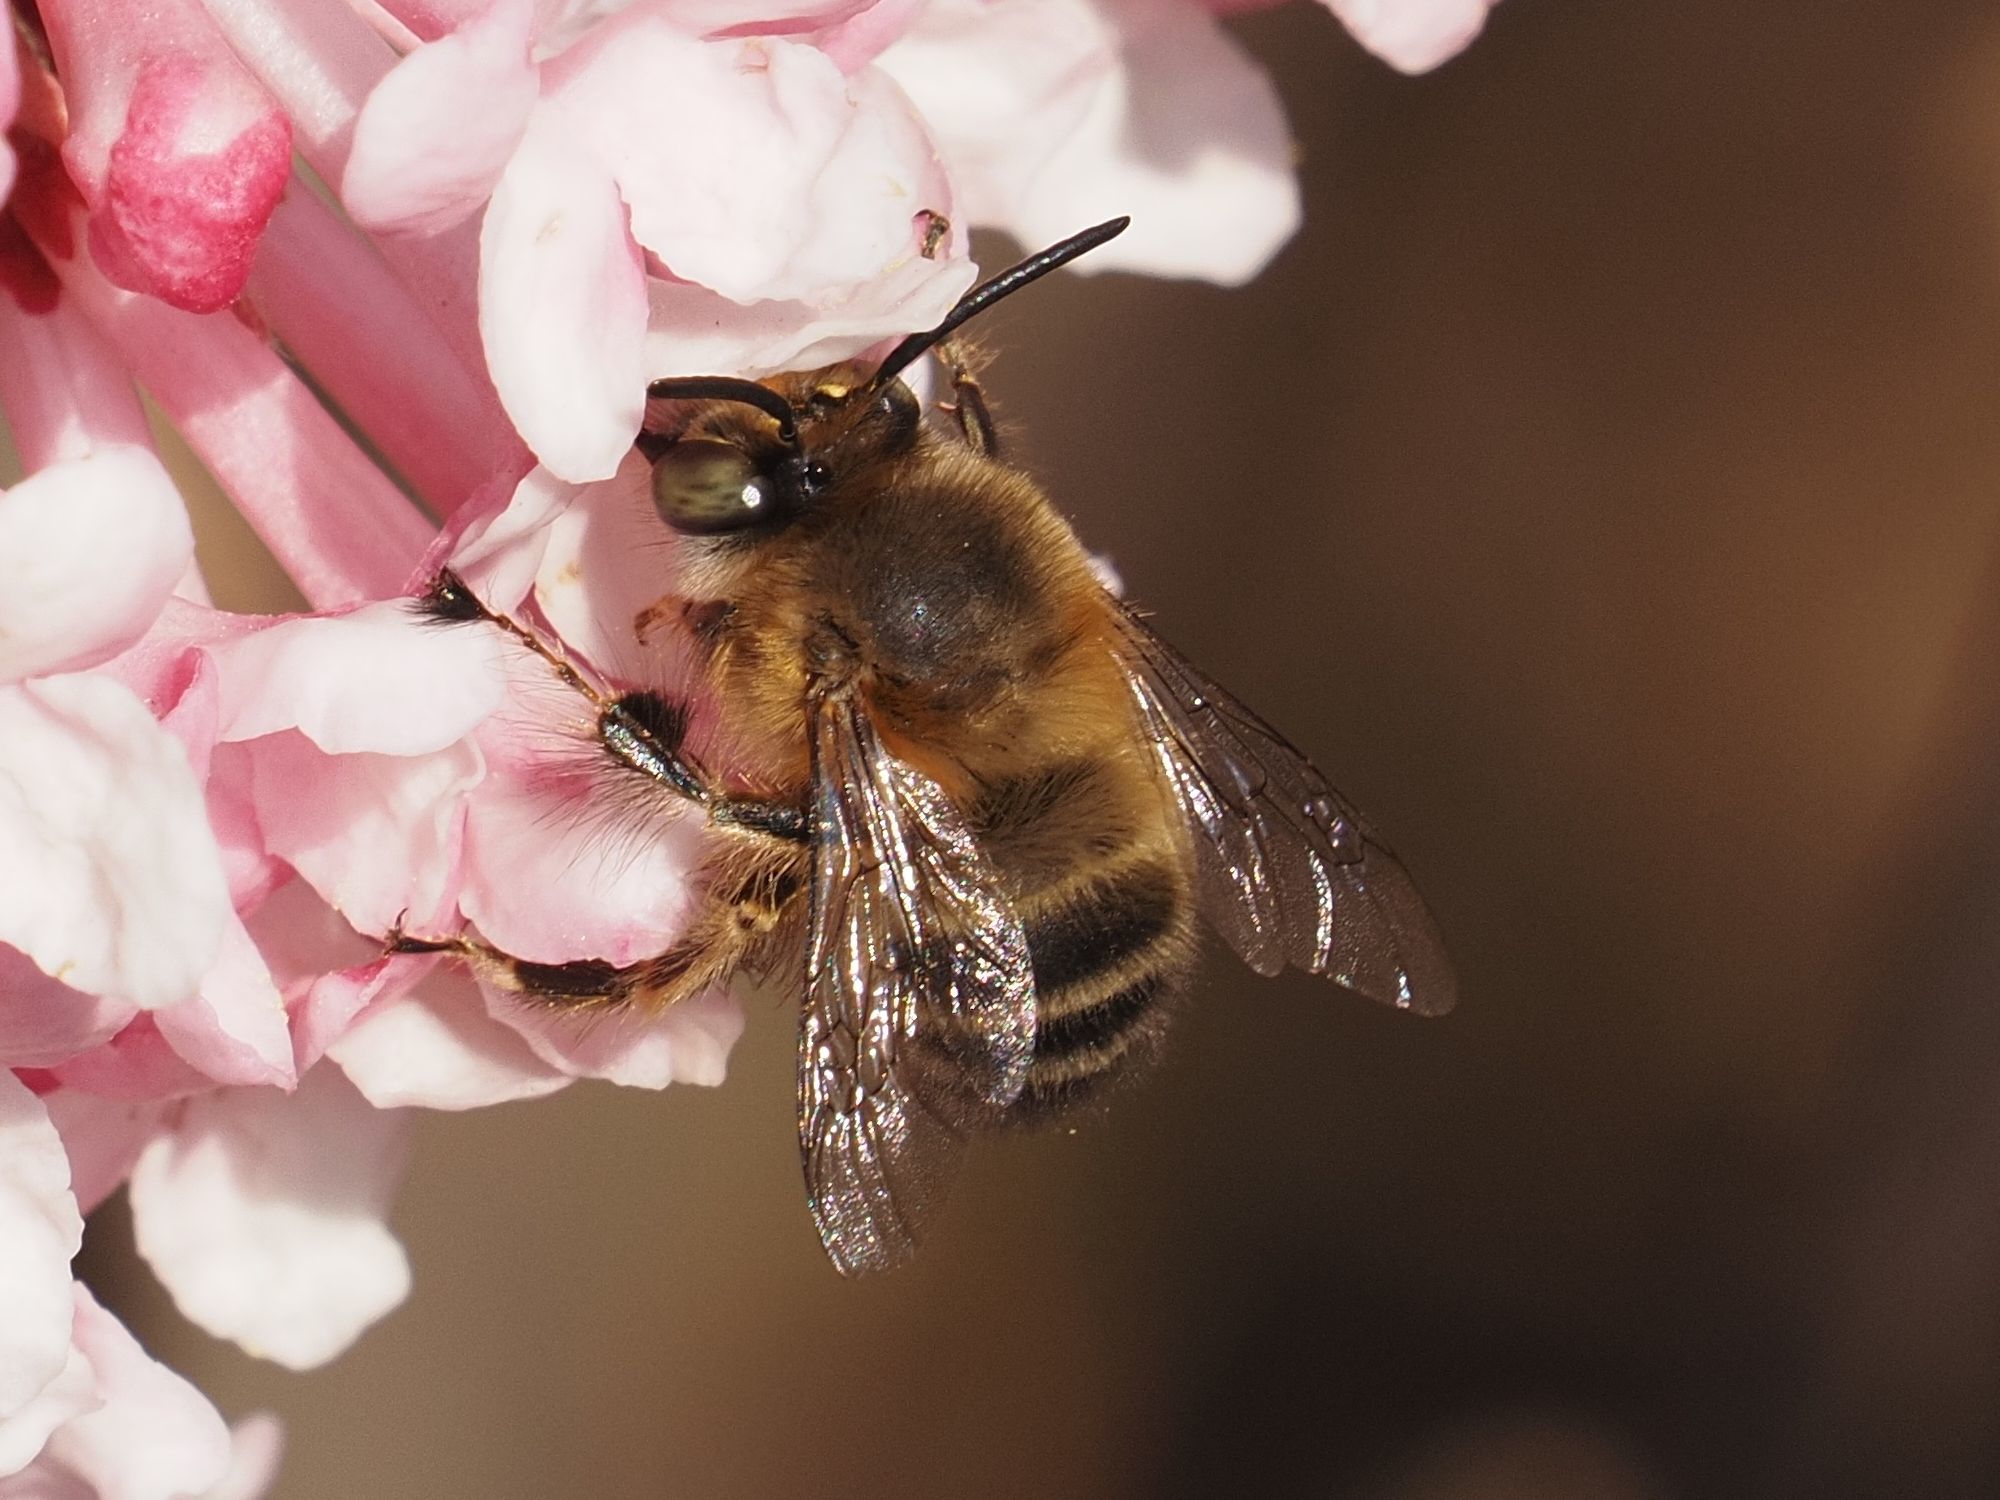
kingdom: Animalia
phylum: Arthropoda
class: Insecta
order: Hymenoptera
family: Apidae
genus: Anthophora
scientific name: Anthophora crinipes
